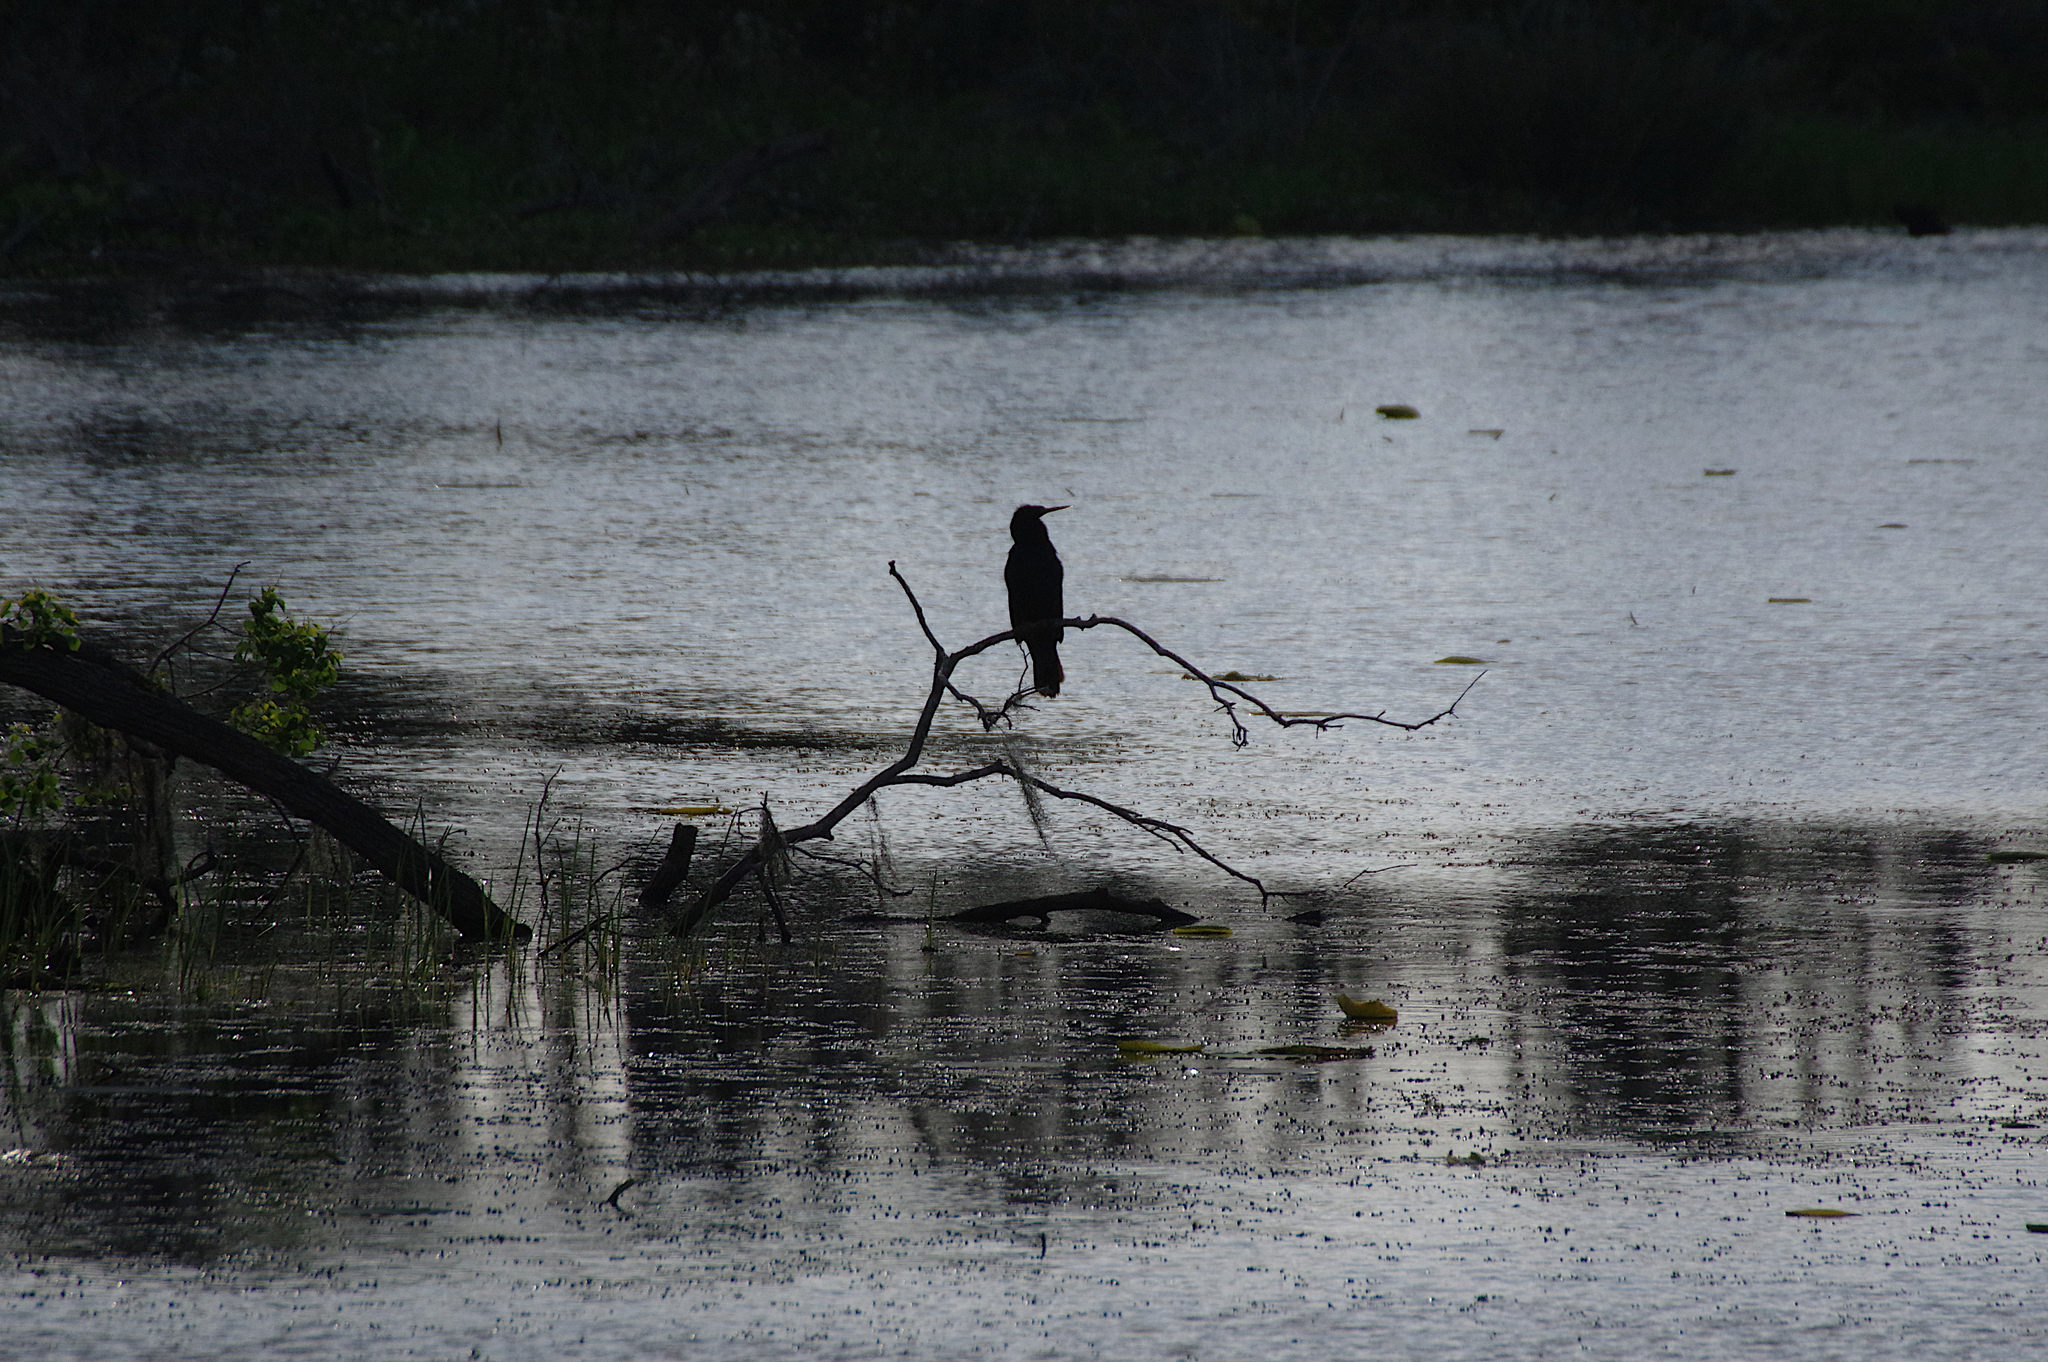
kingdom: Animalia
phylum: Chordata
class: Aves
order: Suliformes
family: Anhingidae
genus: Anhinga
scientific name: Anhinga anhinga
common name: Anhinga
